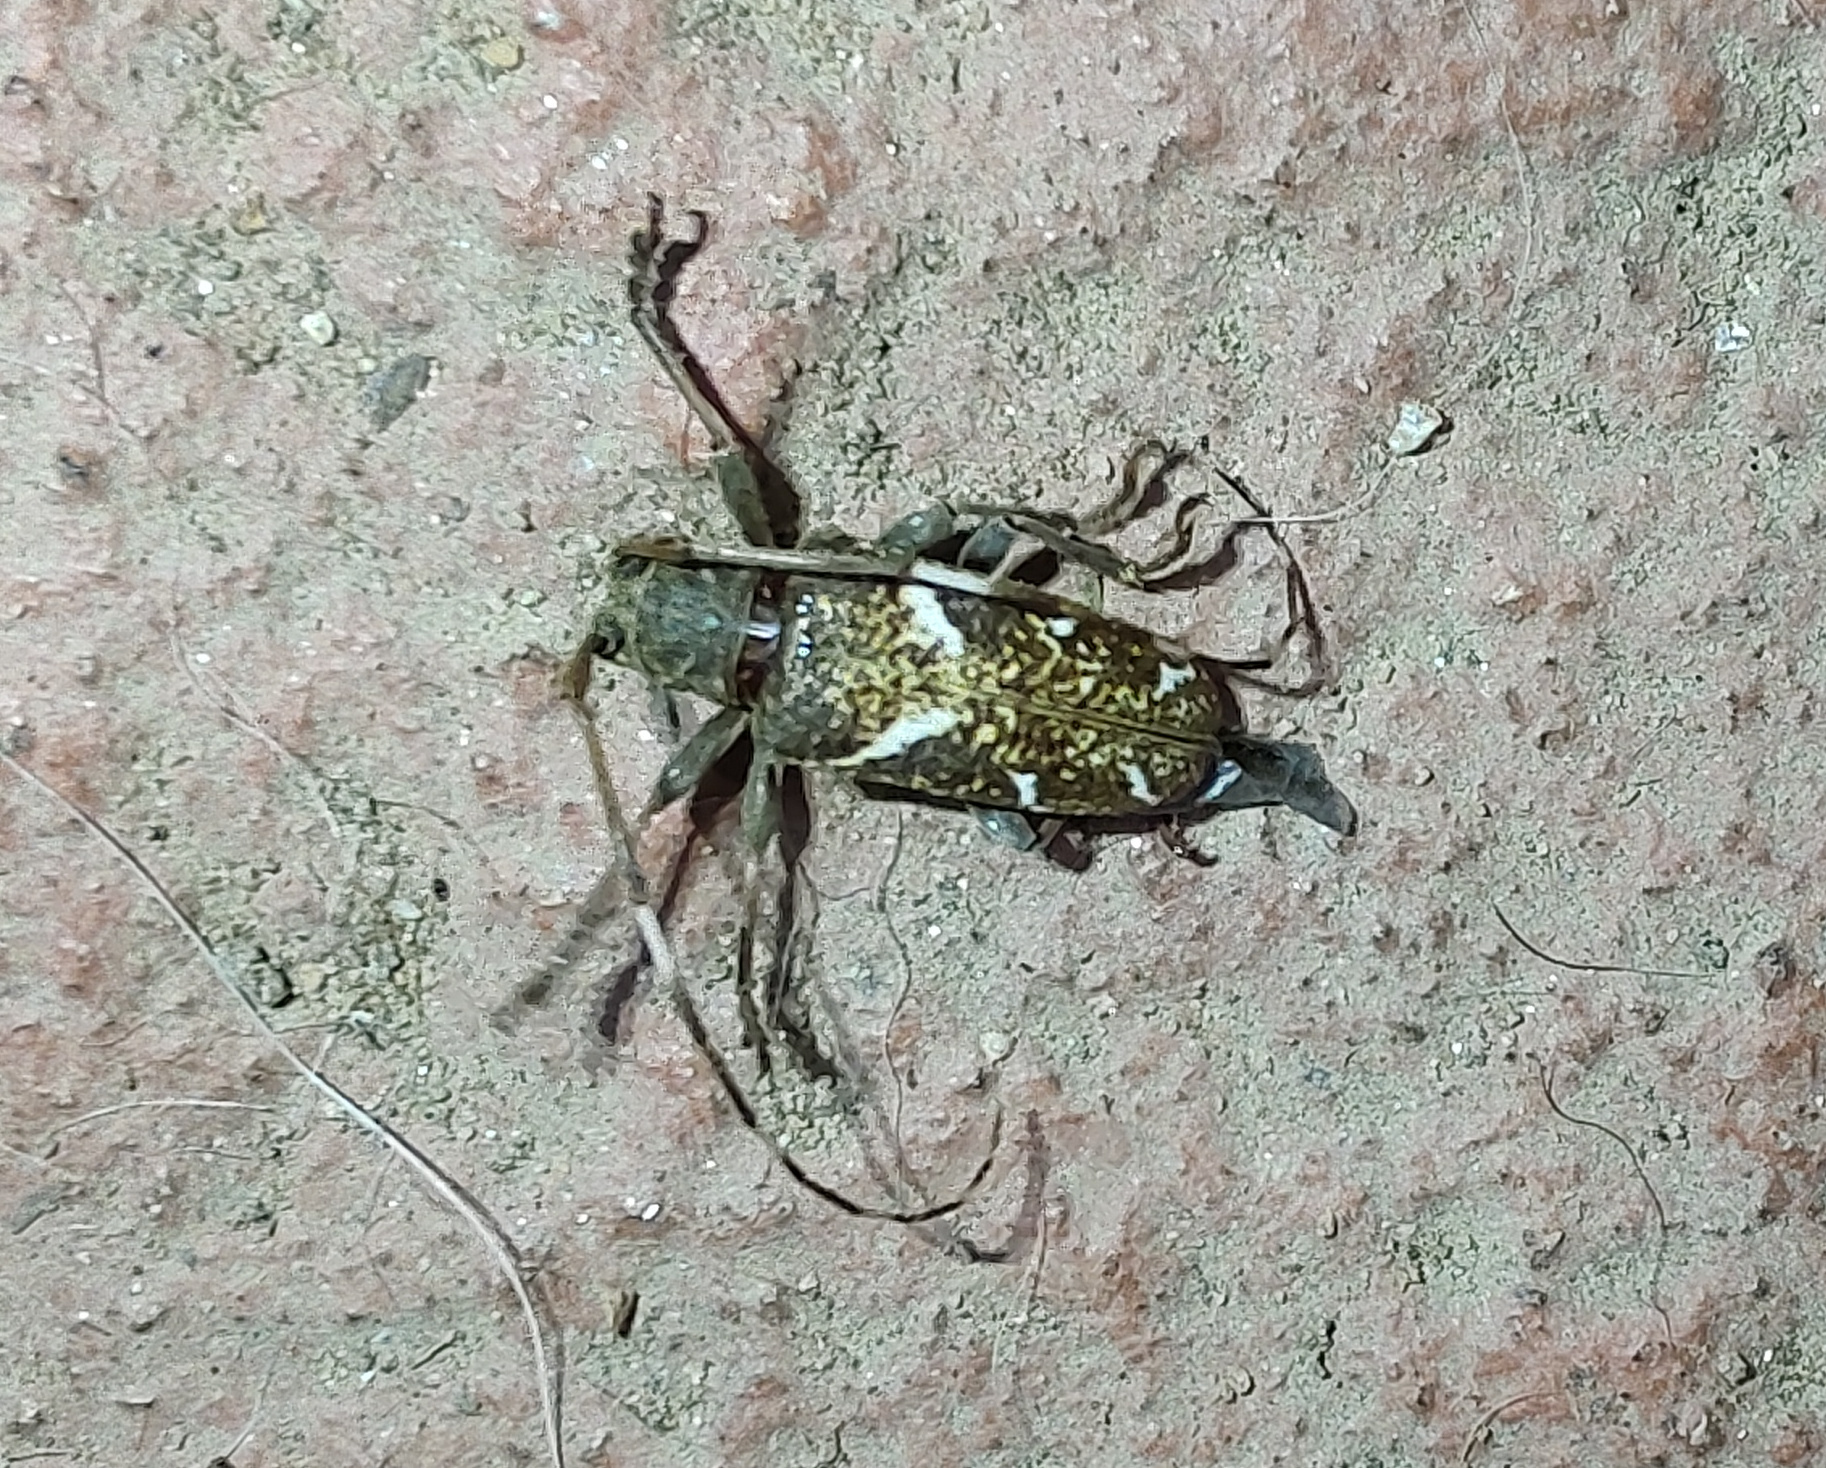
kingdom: Animalia
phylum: Arthropoda
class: Insecta
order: Coleoptera
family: Cerambycidae
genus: Apamauta
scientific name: Apamauta lineolata
